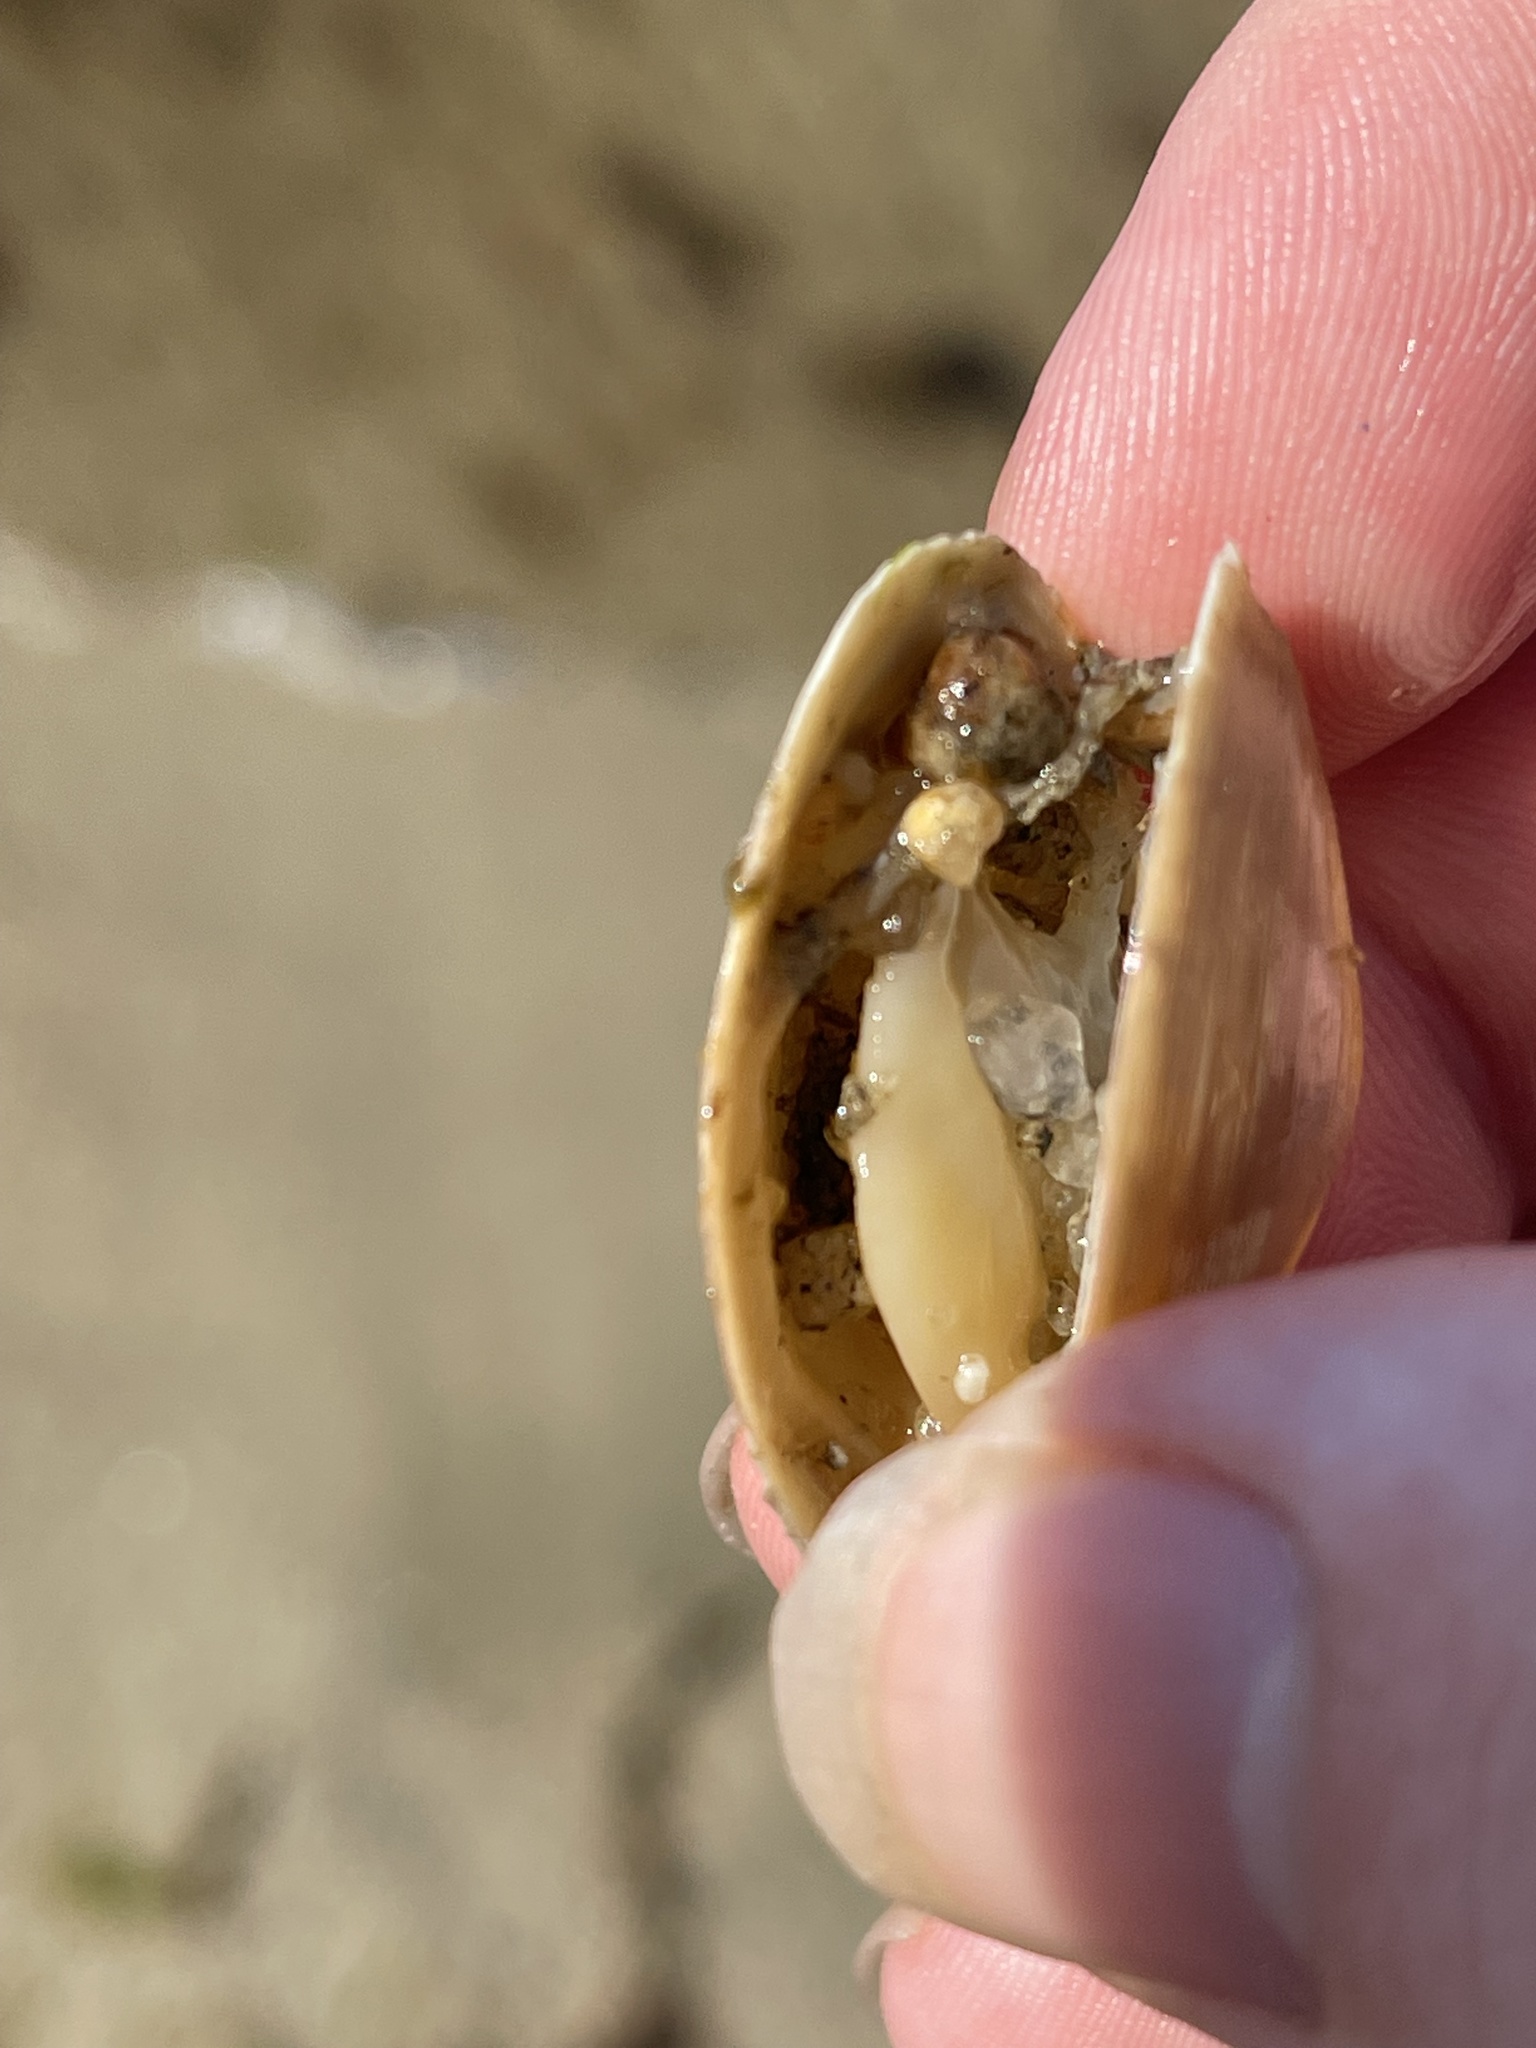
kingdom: Animalia
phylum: Mollusca
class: Bivalvia
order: Venerida
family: Mactridae
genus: Spisula
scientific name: Spisula solidissima
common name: Atlantic surf clam
